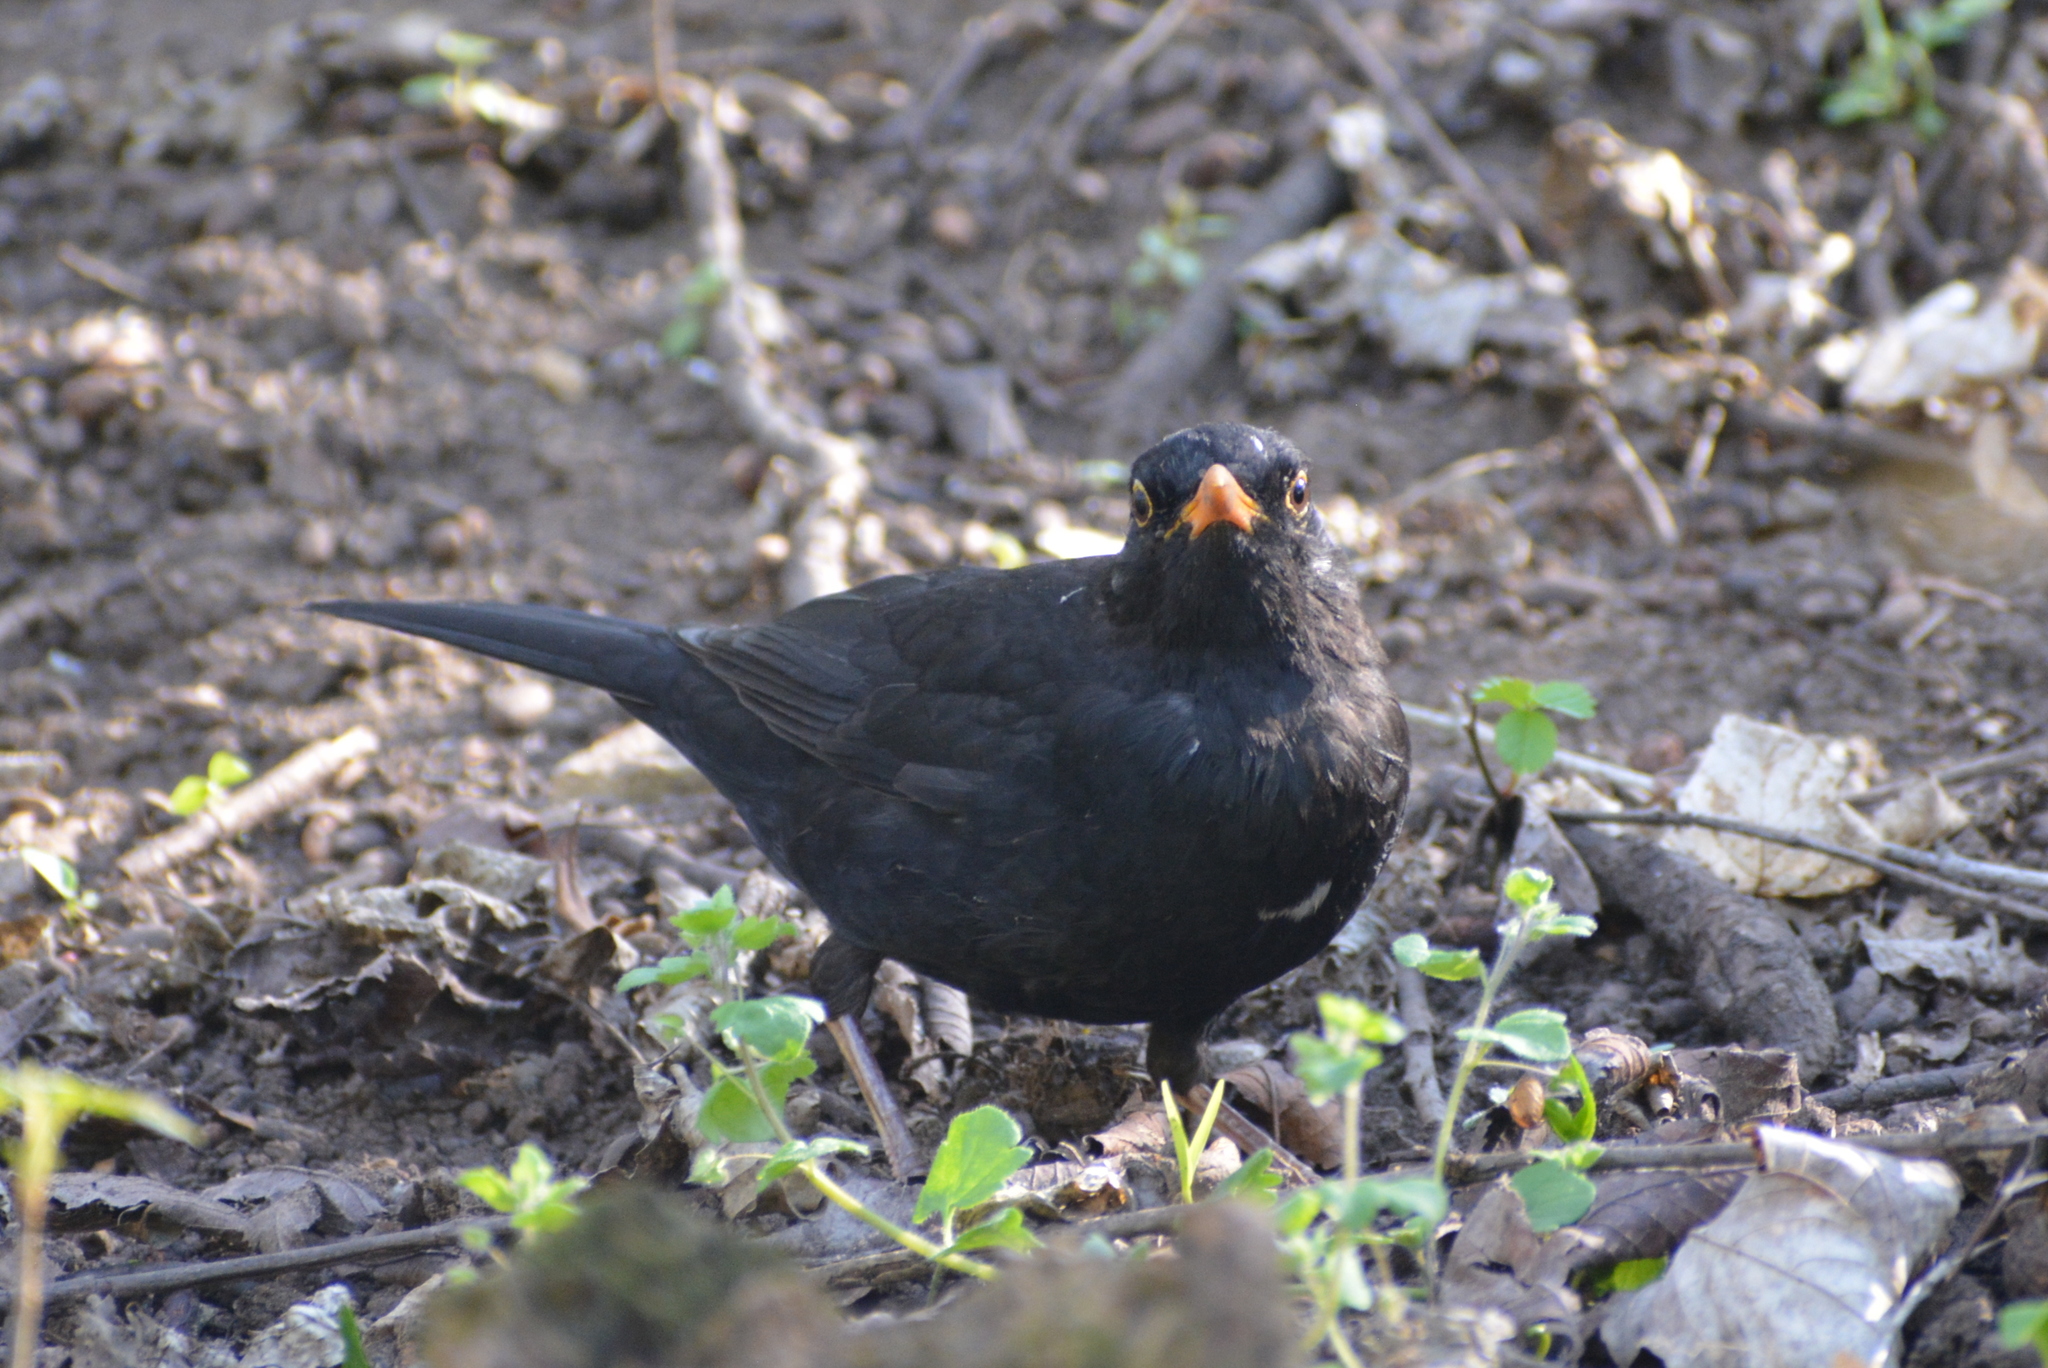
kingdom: Animalia
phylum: Chordata
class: Aves
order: Passeriformes
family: Turdidae
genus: Turdus
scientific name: Turdus merula
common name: Common blackbird
